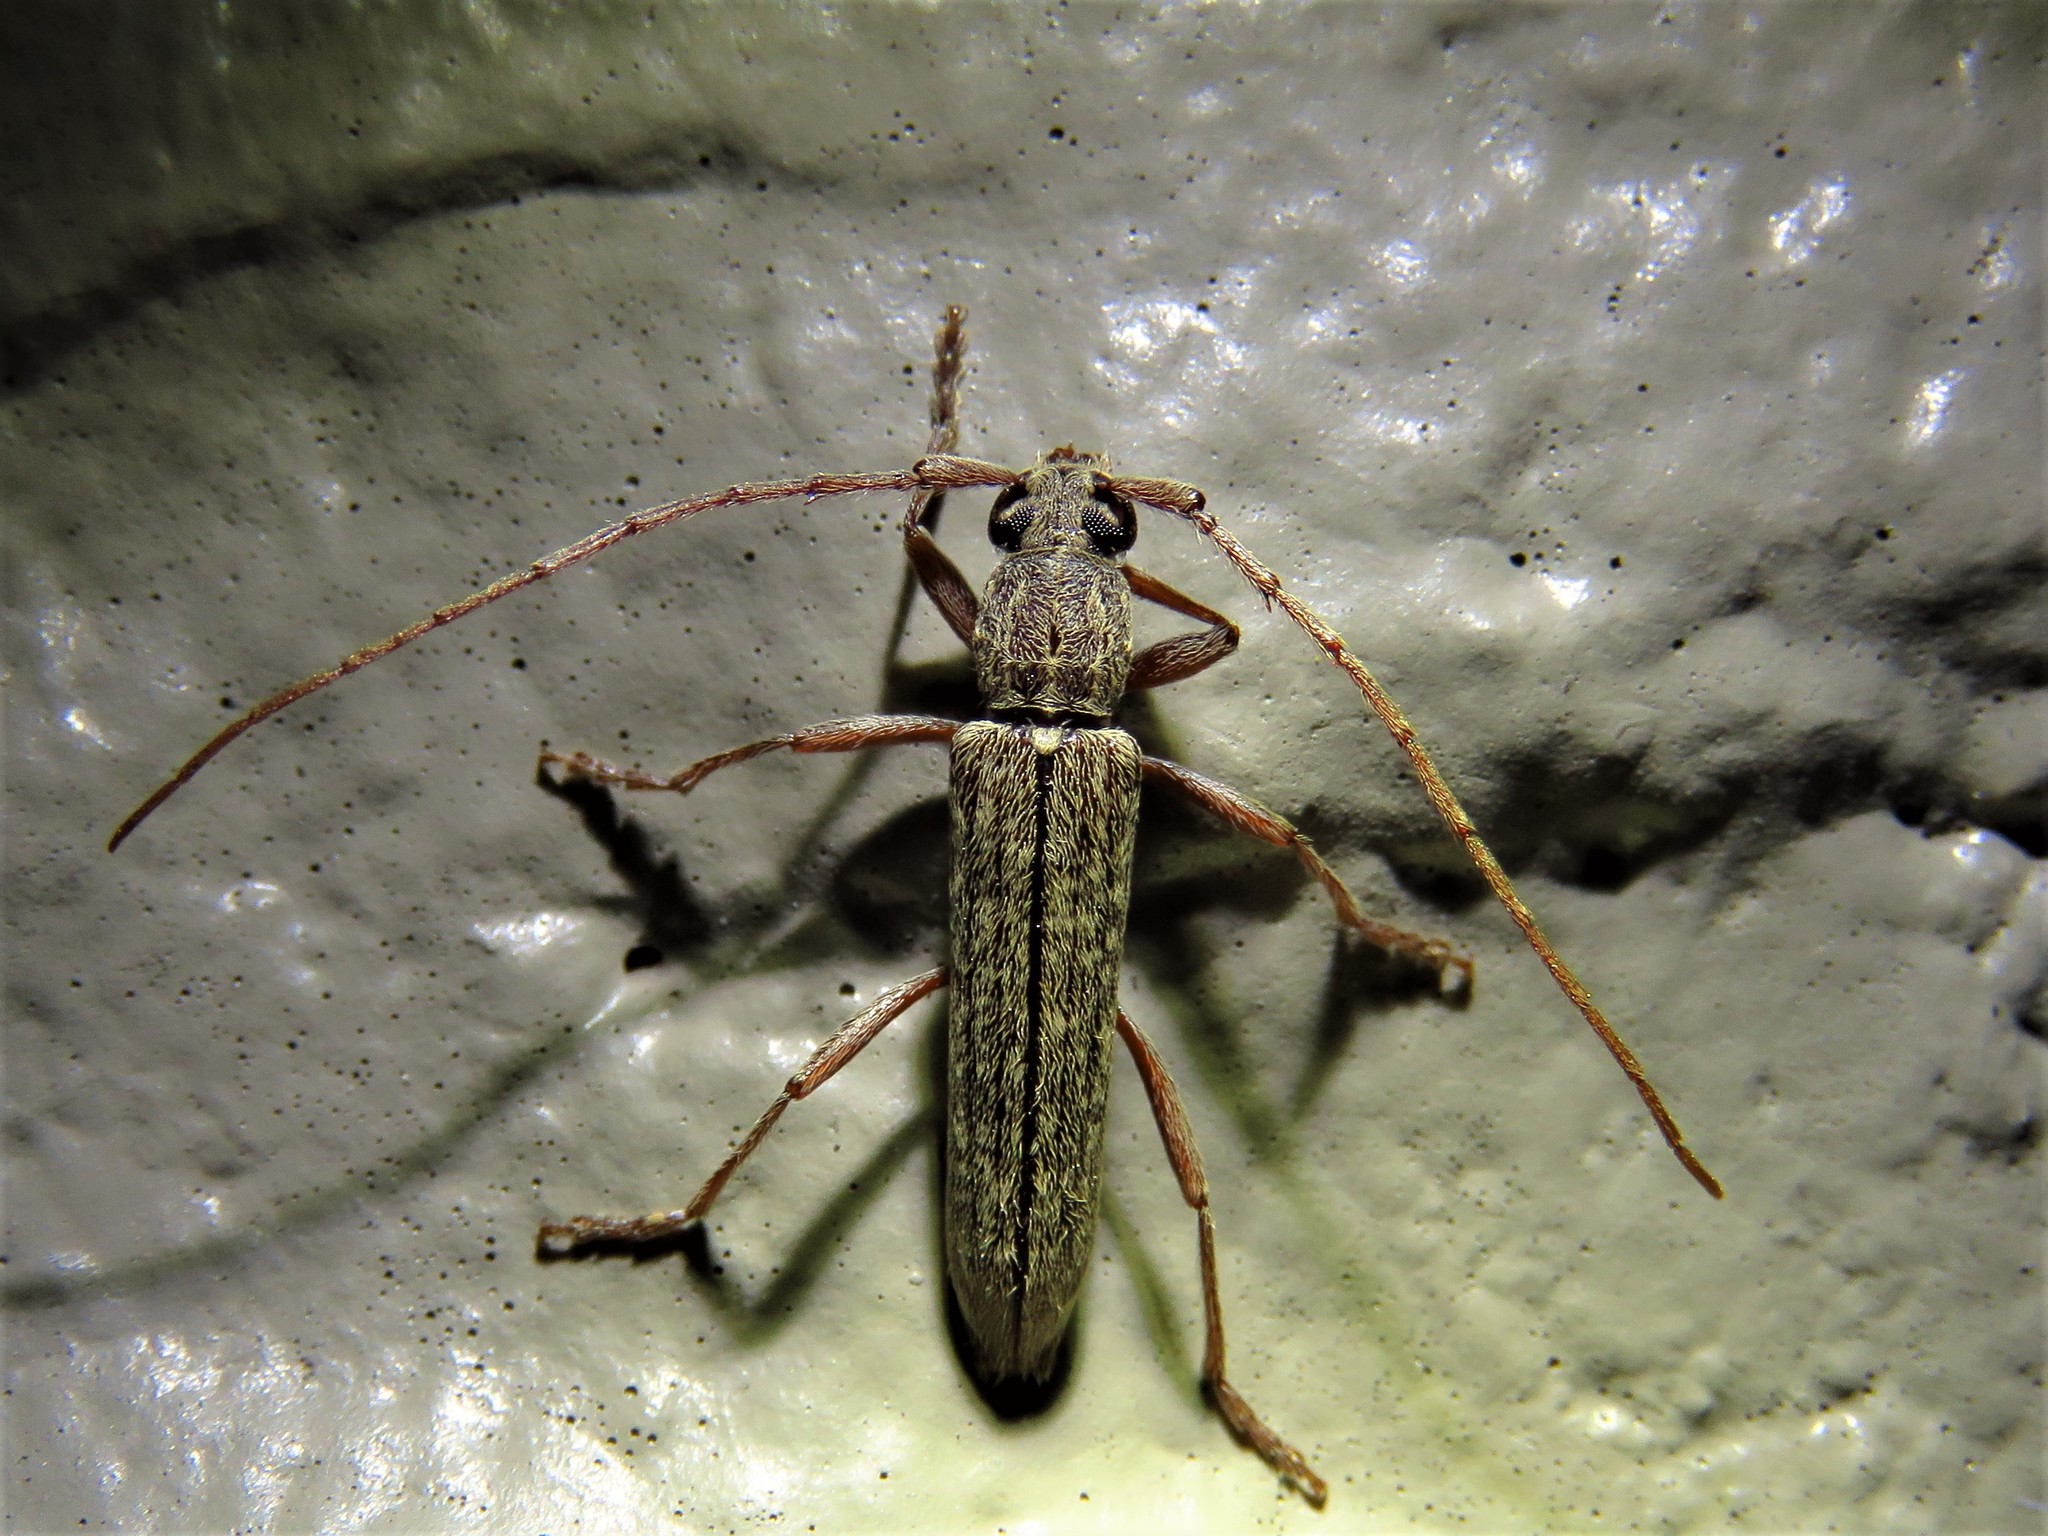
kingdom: Animalia
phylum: Arthropoda
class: Insecta
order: Coleoptera
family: Cerambycidae
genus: Anelaphus
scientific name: Anelaphus villosus
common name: Twig pruner
